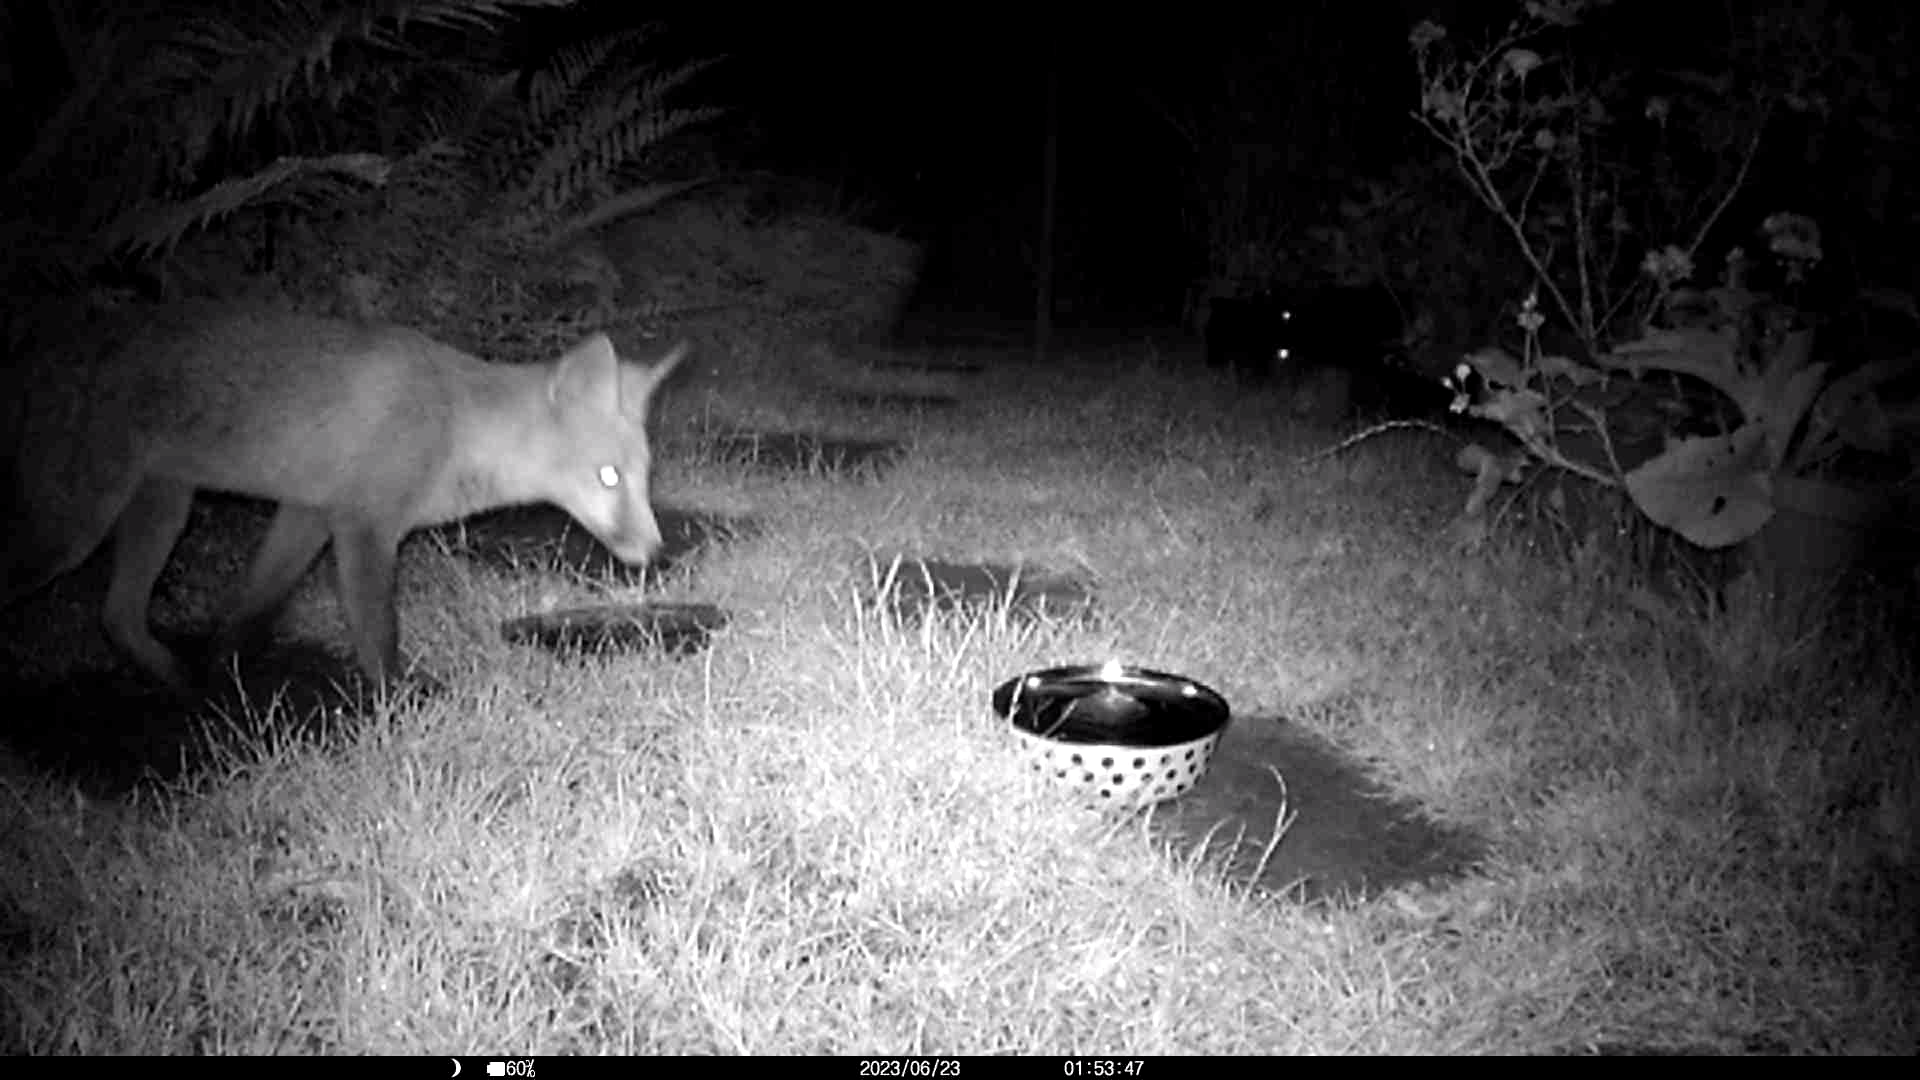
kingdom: Animalia
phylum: Chordata
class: Mammalia
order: Carnivora
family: Canidae
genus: Vulpes
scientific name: Vulpes vulpes
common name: Red fox
